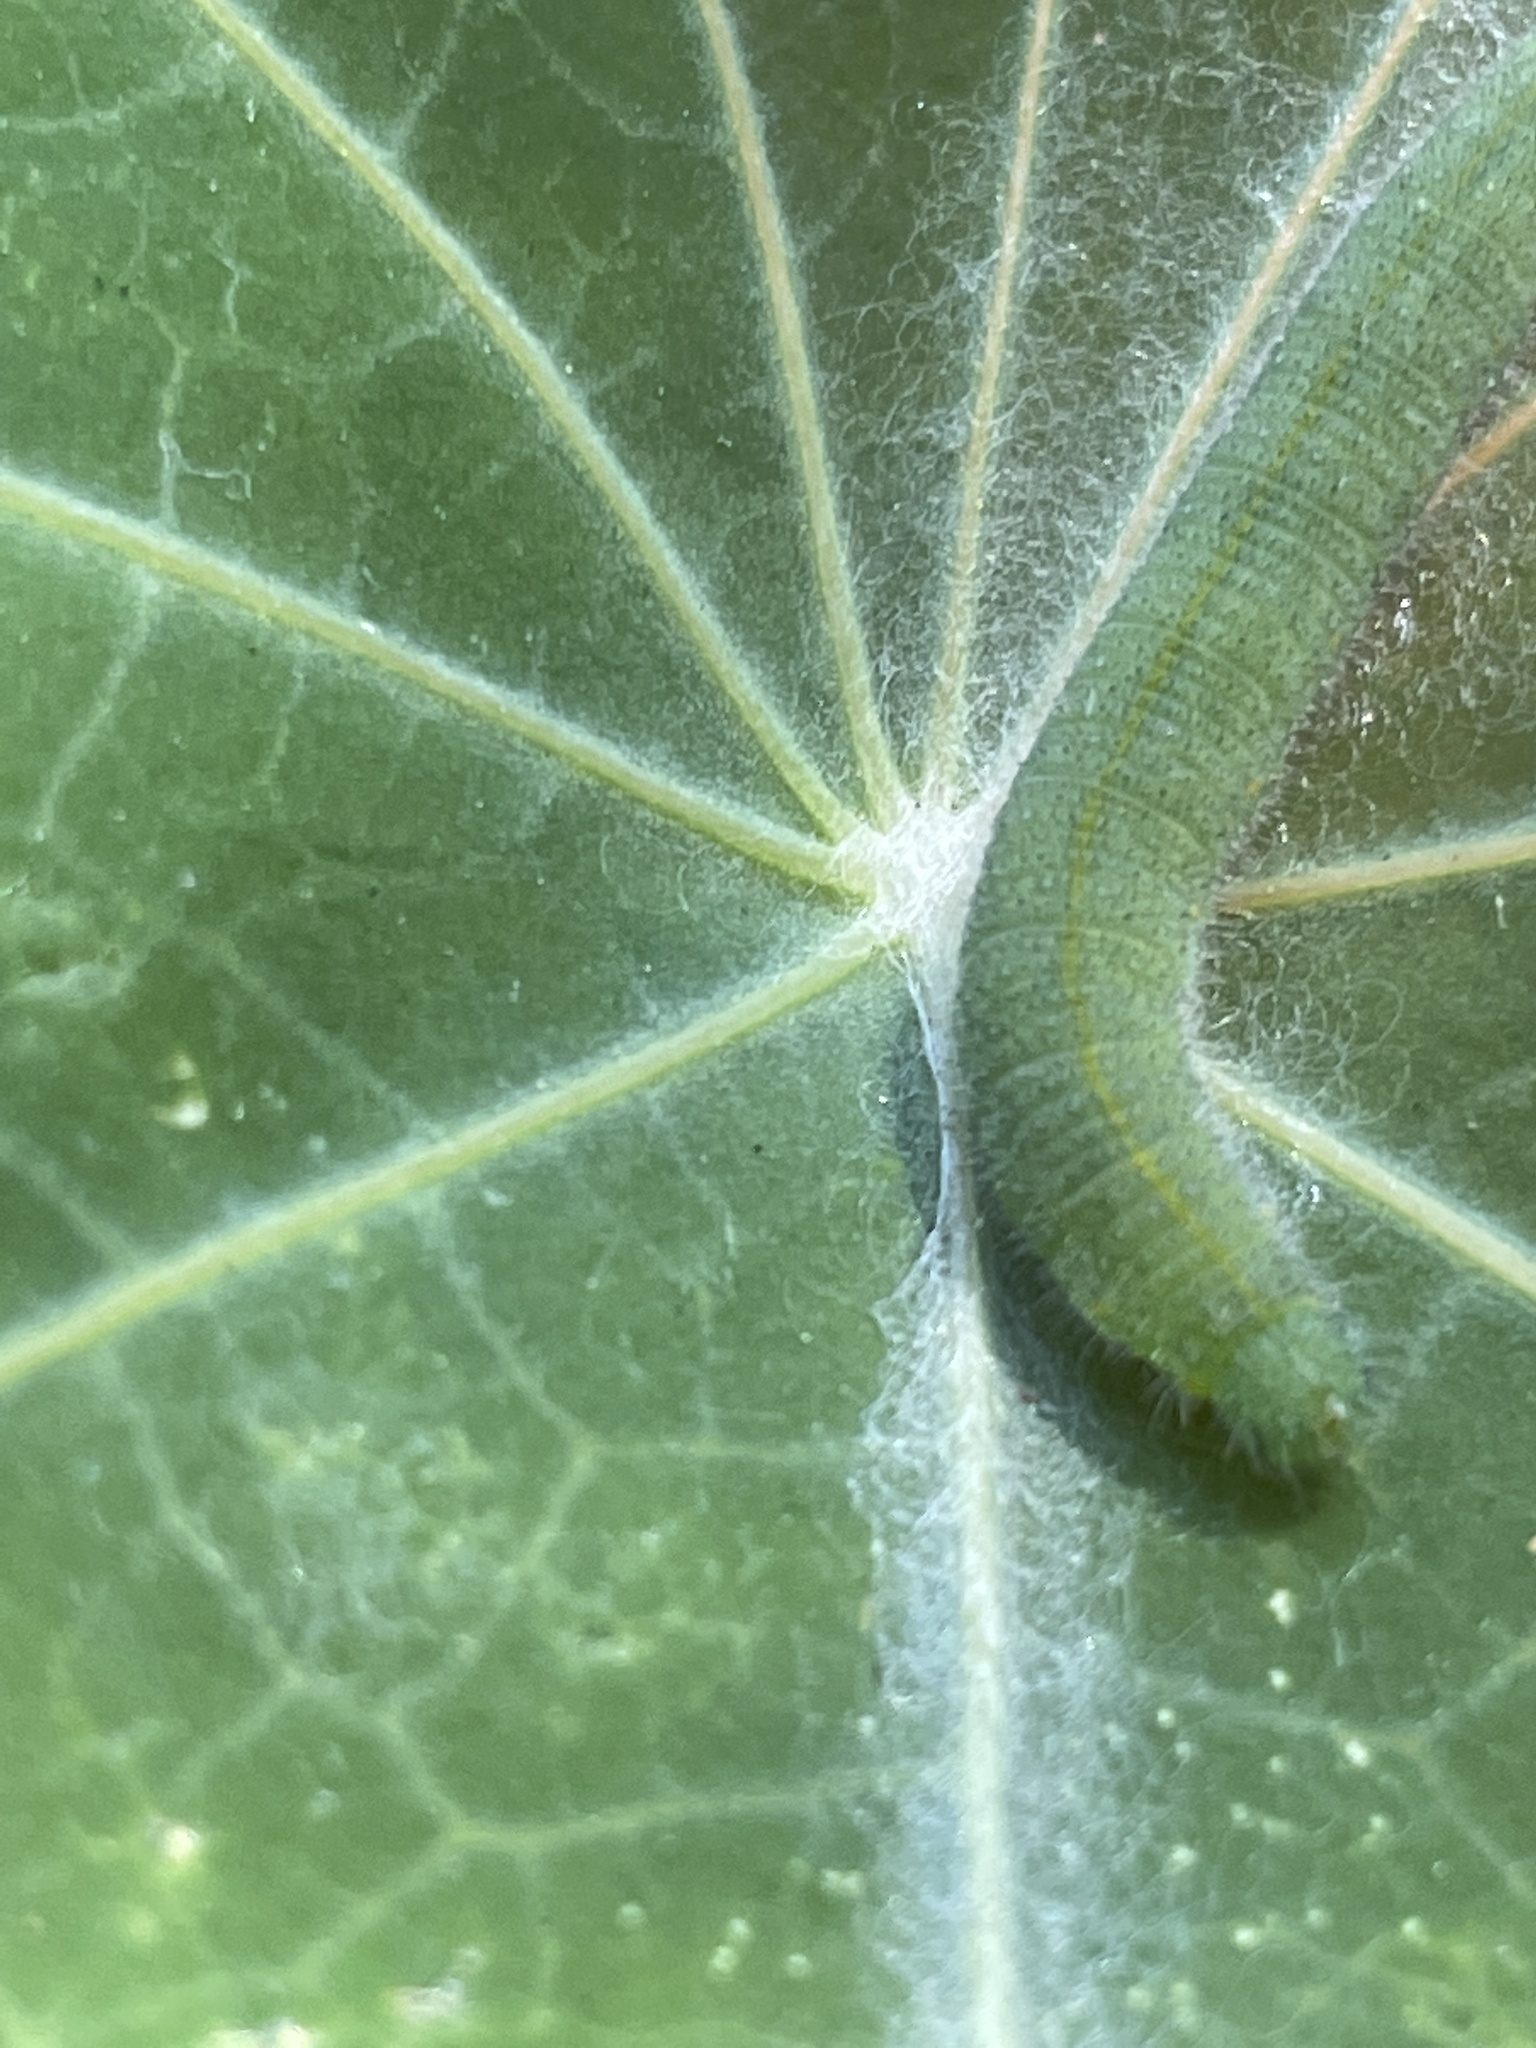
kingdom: Animalia
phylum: Arthropoda
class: Insecta
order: Lepidoptera
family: Pieridae
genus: Pieris
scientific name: Pieris rapae
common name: Small white
